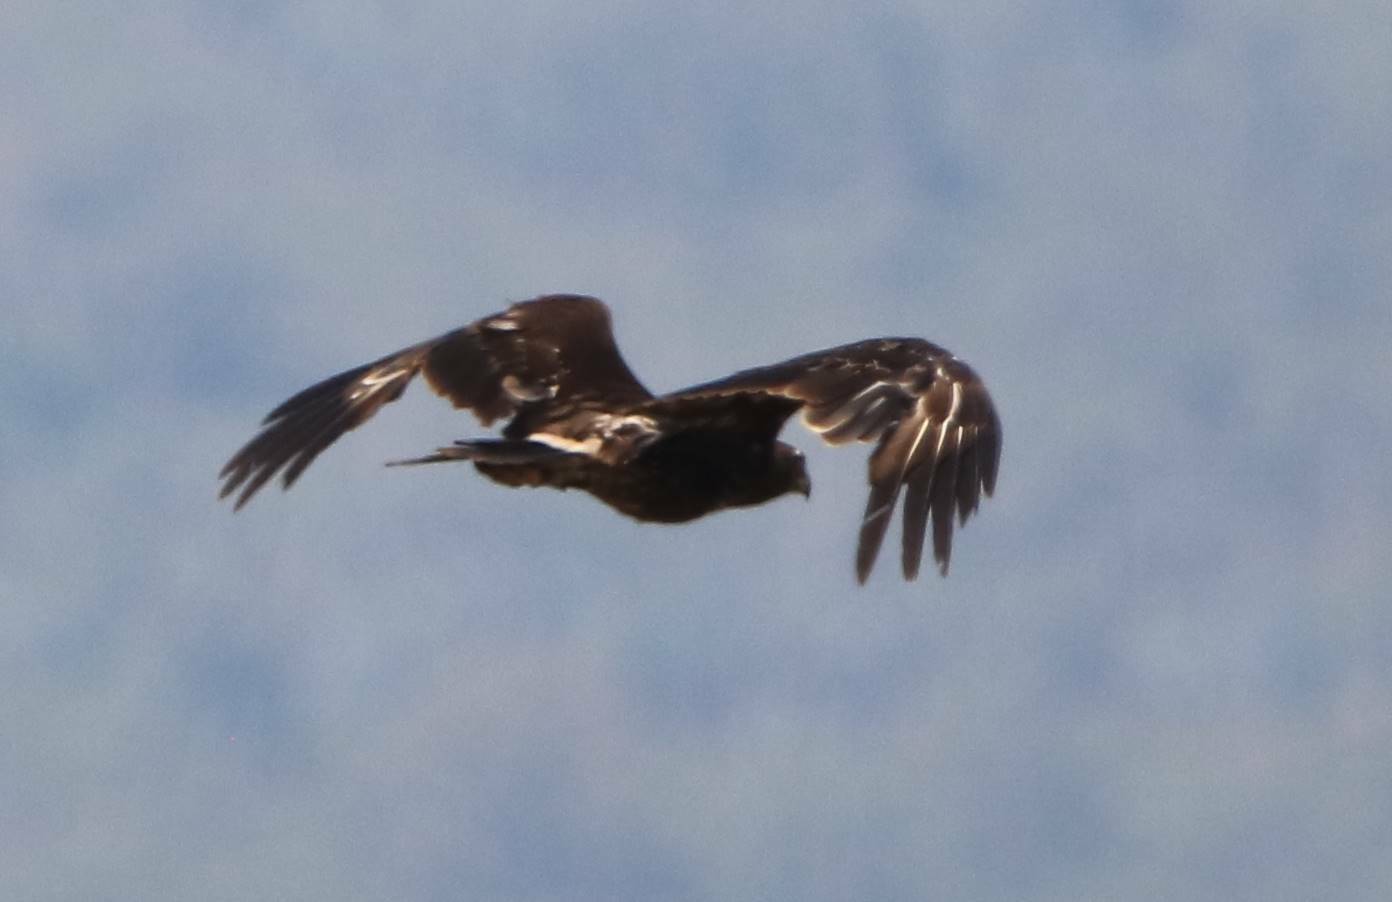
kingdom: Animalia
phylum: Chordata
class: Aves
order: Accipitriformes
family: Accipitridae
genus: Aquila
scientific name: Aquila clanga
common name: Greater spotted eagle
